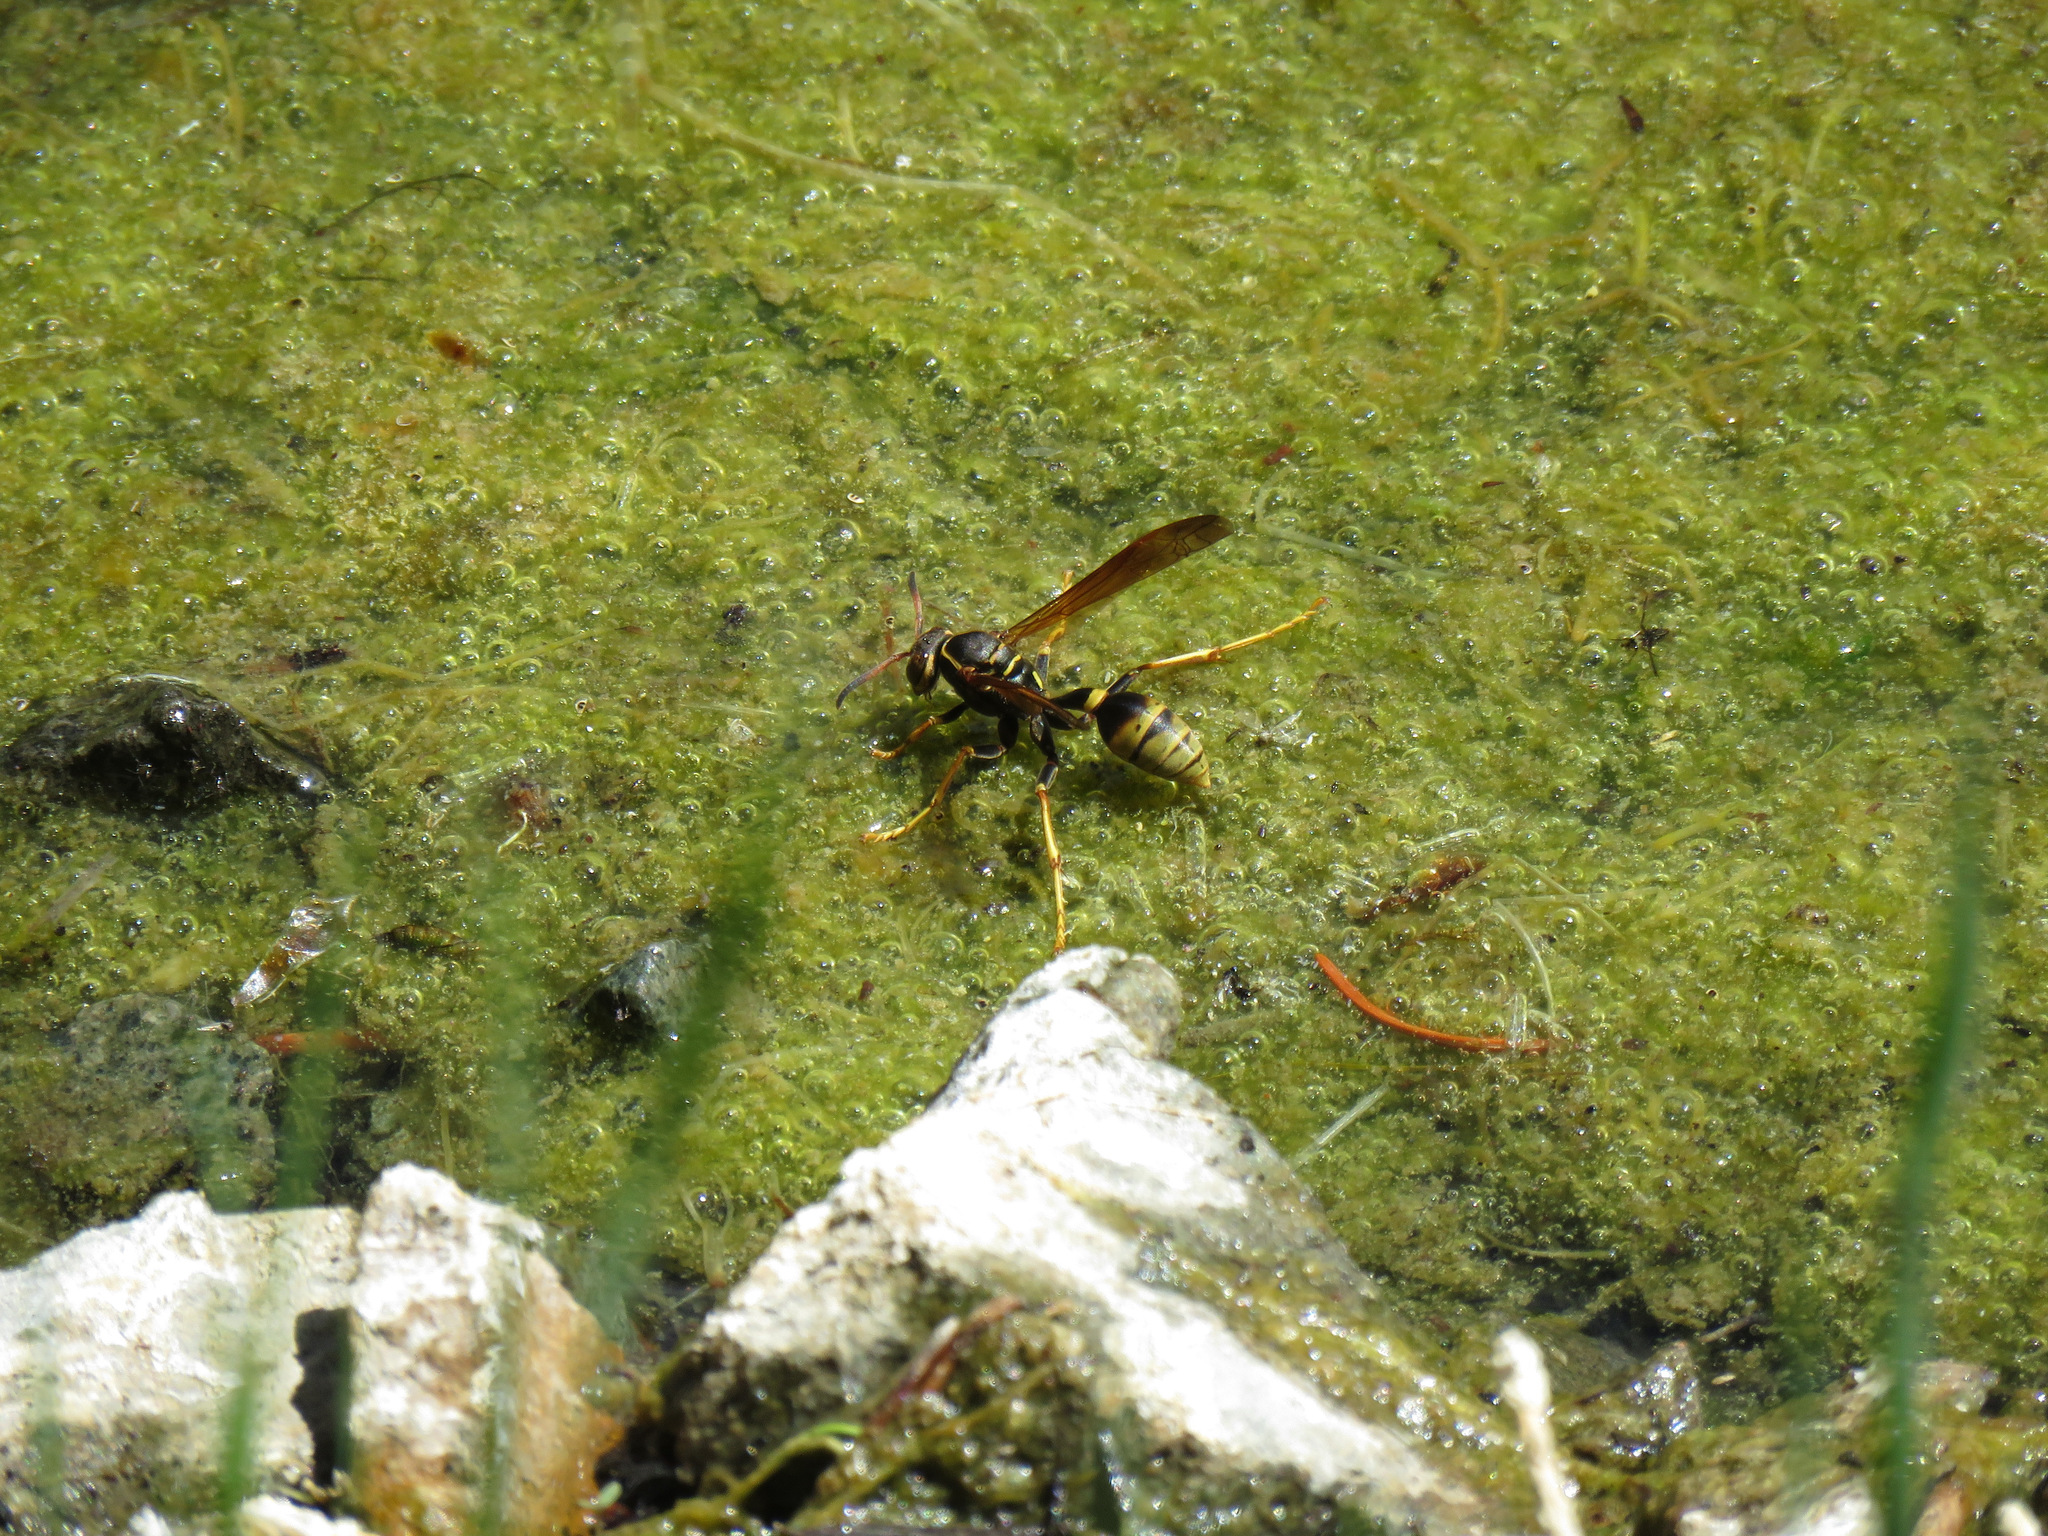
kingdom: Animalia
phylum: Arthropoda
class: Insecta
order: Hymenoptera
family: Vespidae
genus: Mischocyttarus
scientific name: Mischocyttarus flavitarsis
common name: Wasp
